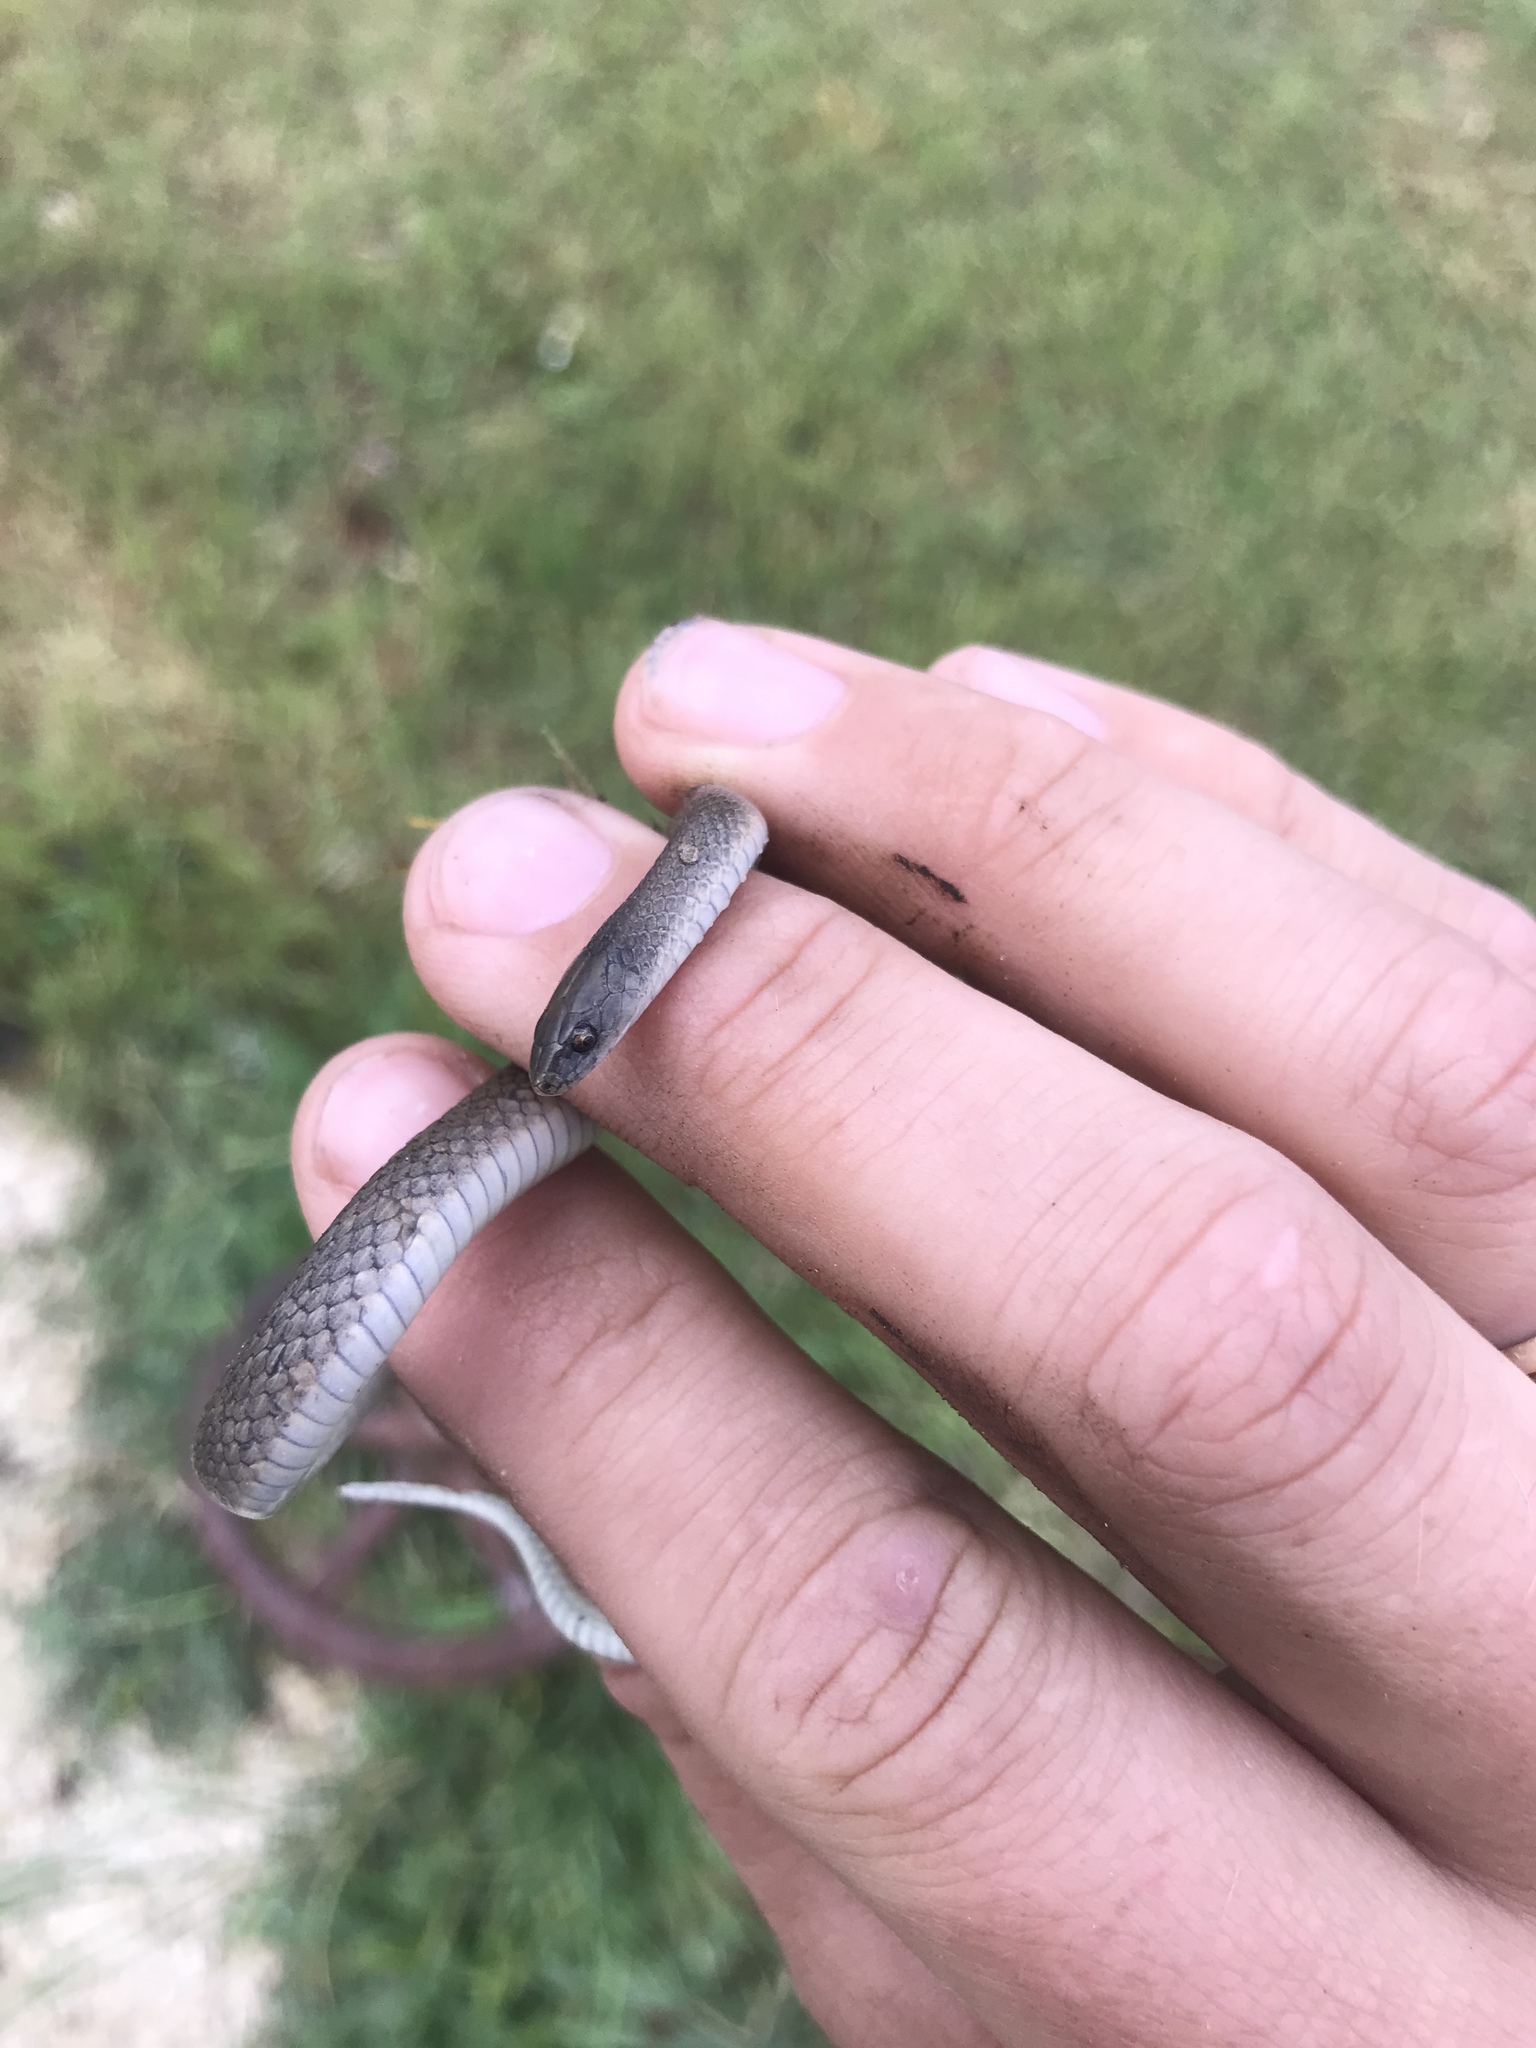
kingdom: Animalia
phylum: Chordata
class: Squamata
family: Colubridae
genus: Haldea
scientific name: Haldea striatula
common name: Rough earth snake
